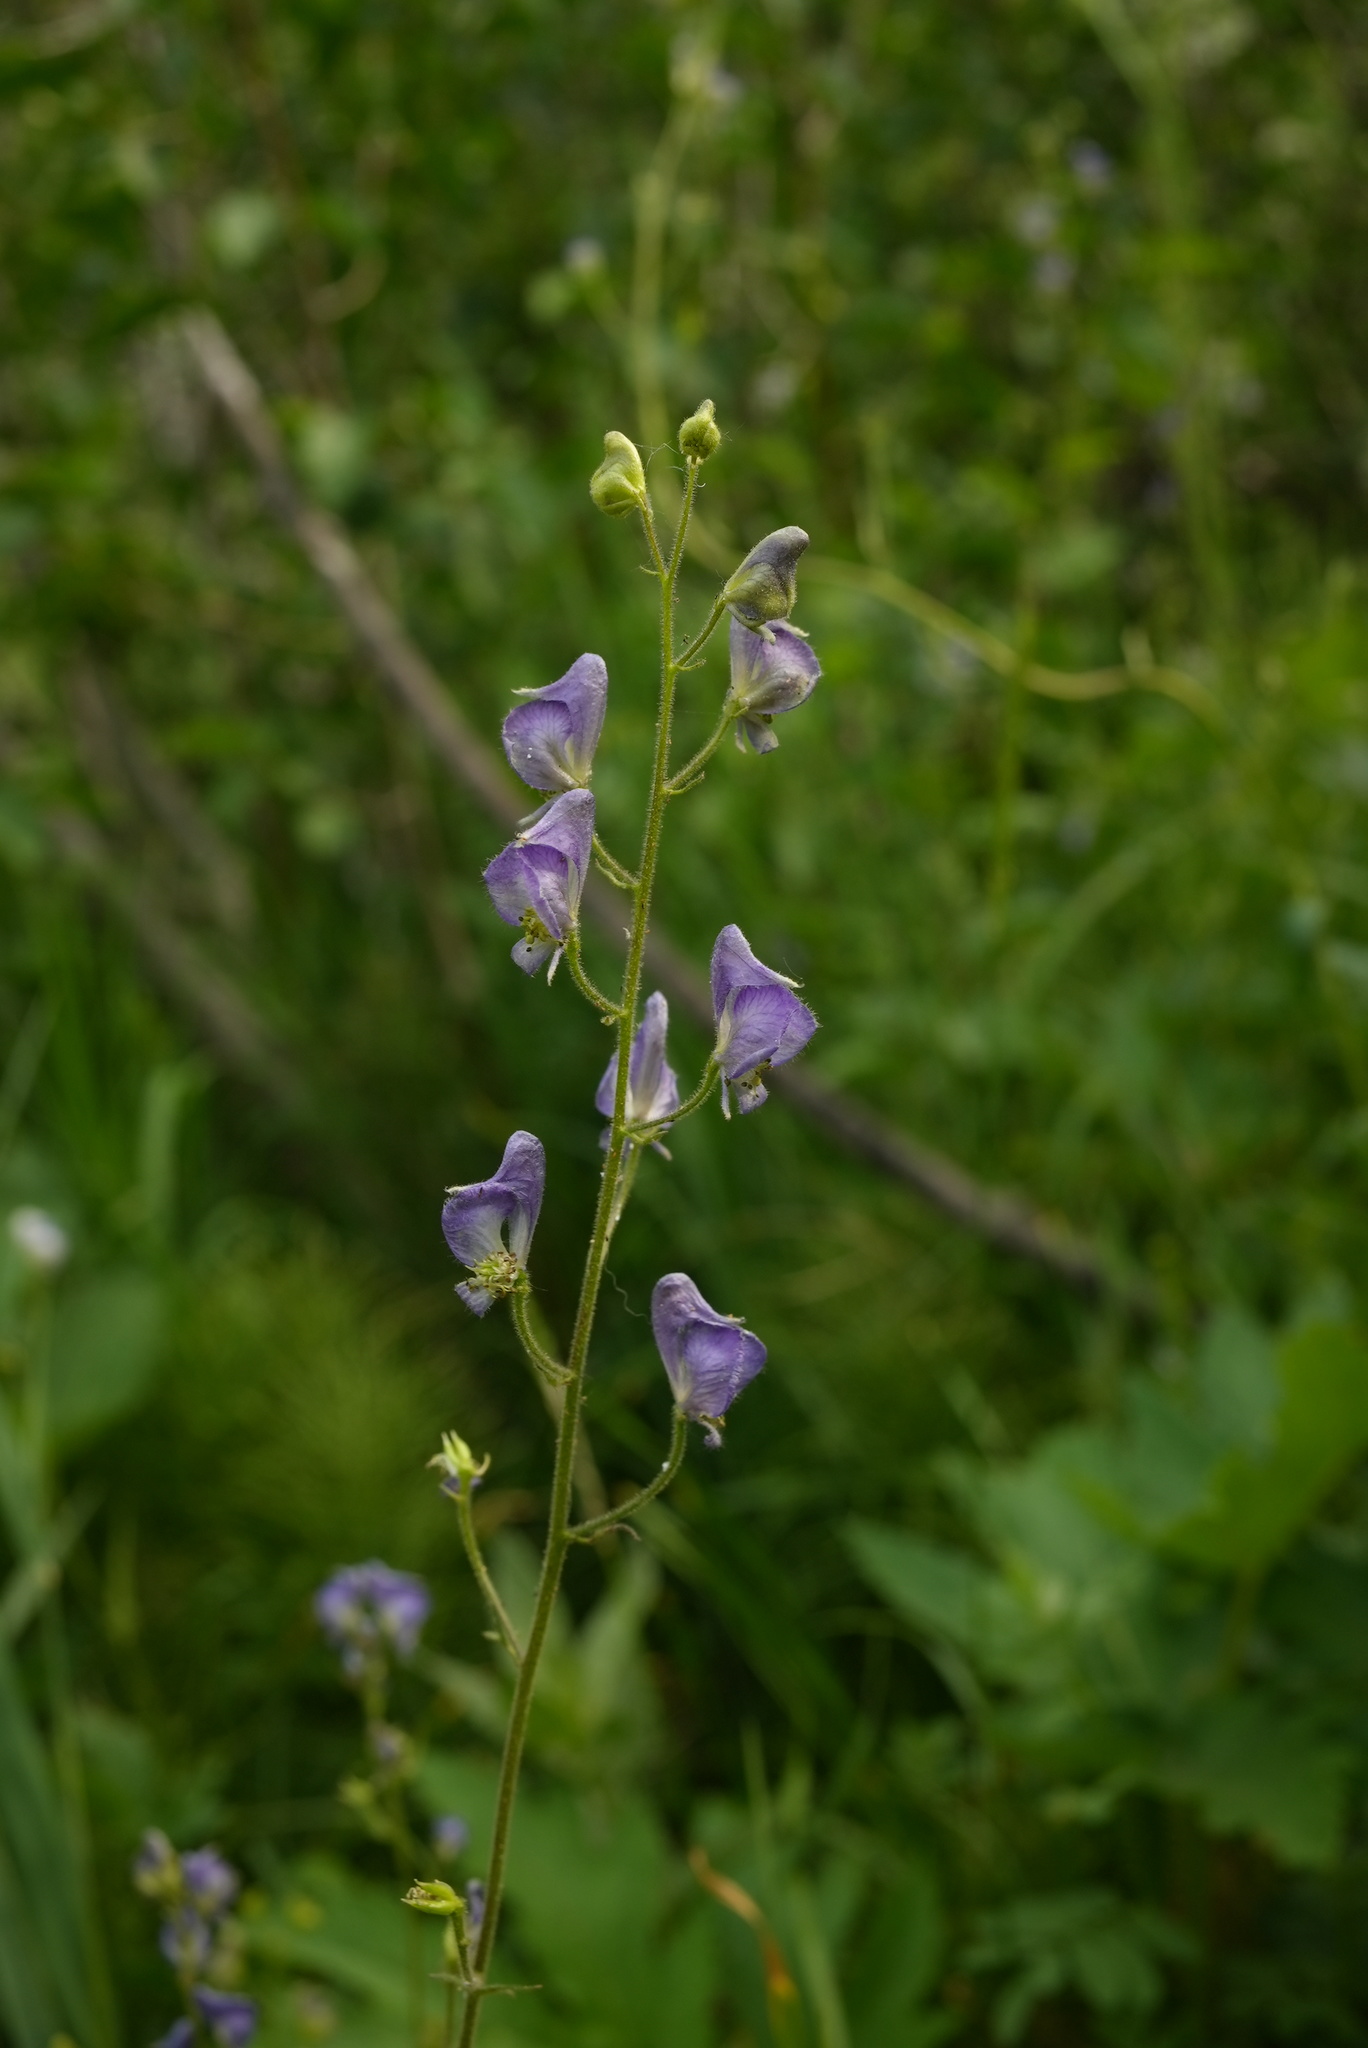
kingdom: Plantae
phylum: Tracheophyta
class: Magnoliopsida
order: Ranunculales
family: Ranunculaceae
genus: Aconitum
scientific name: Aconitum columbianum
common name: Columbia aconite
